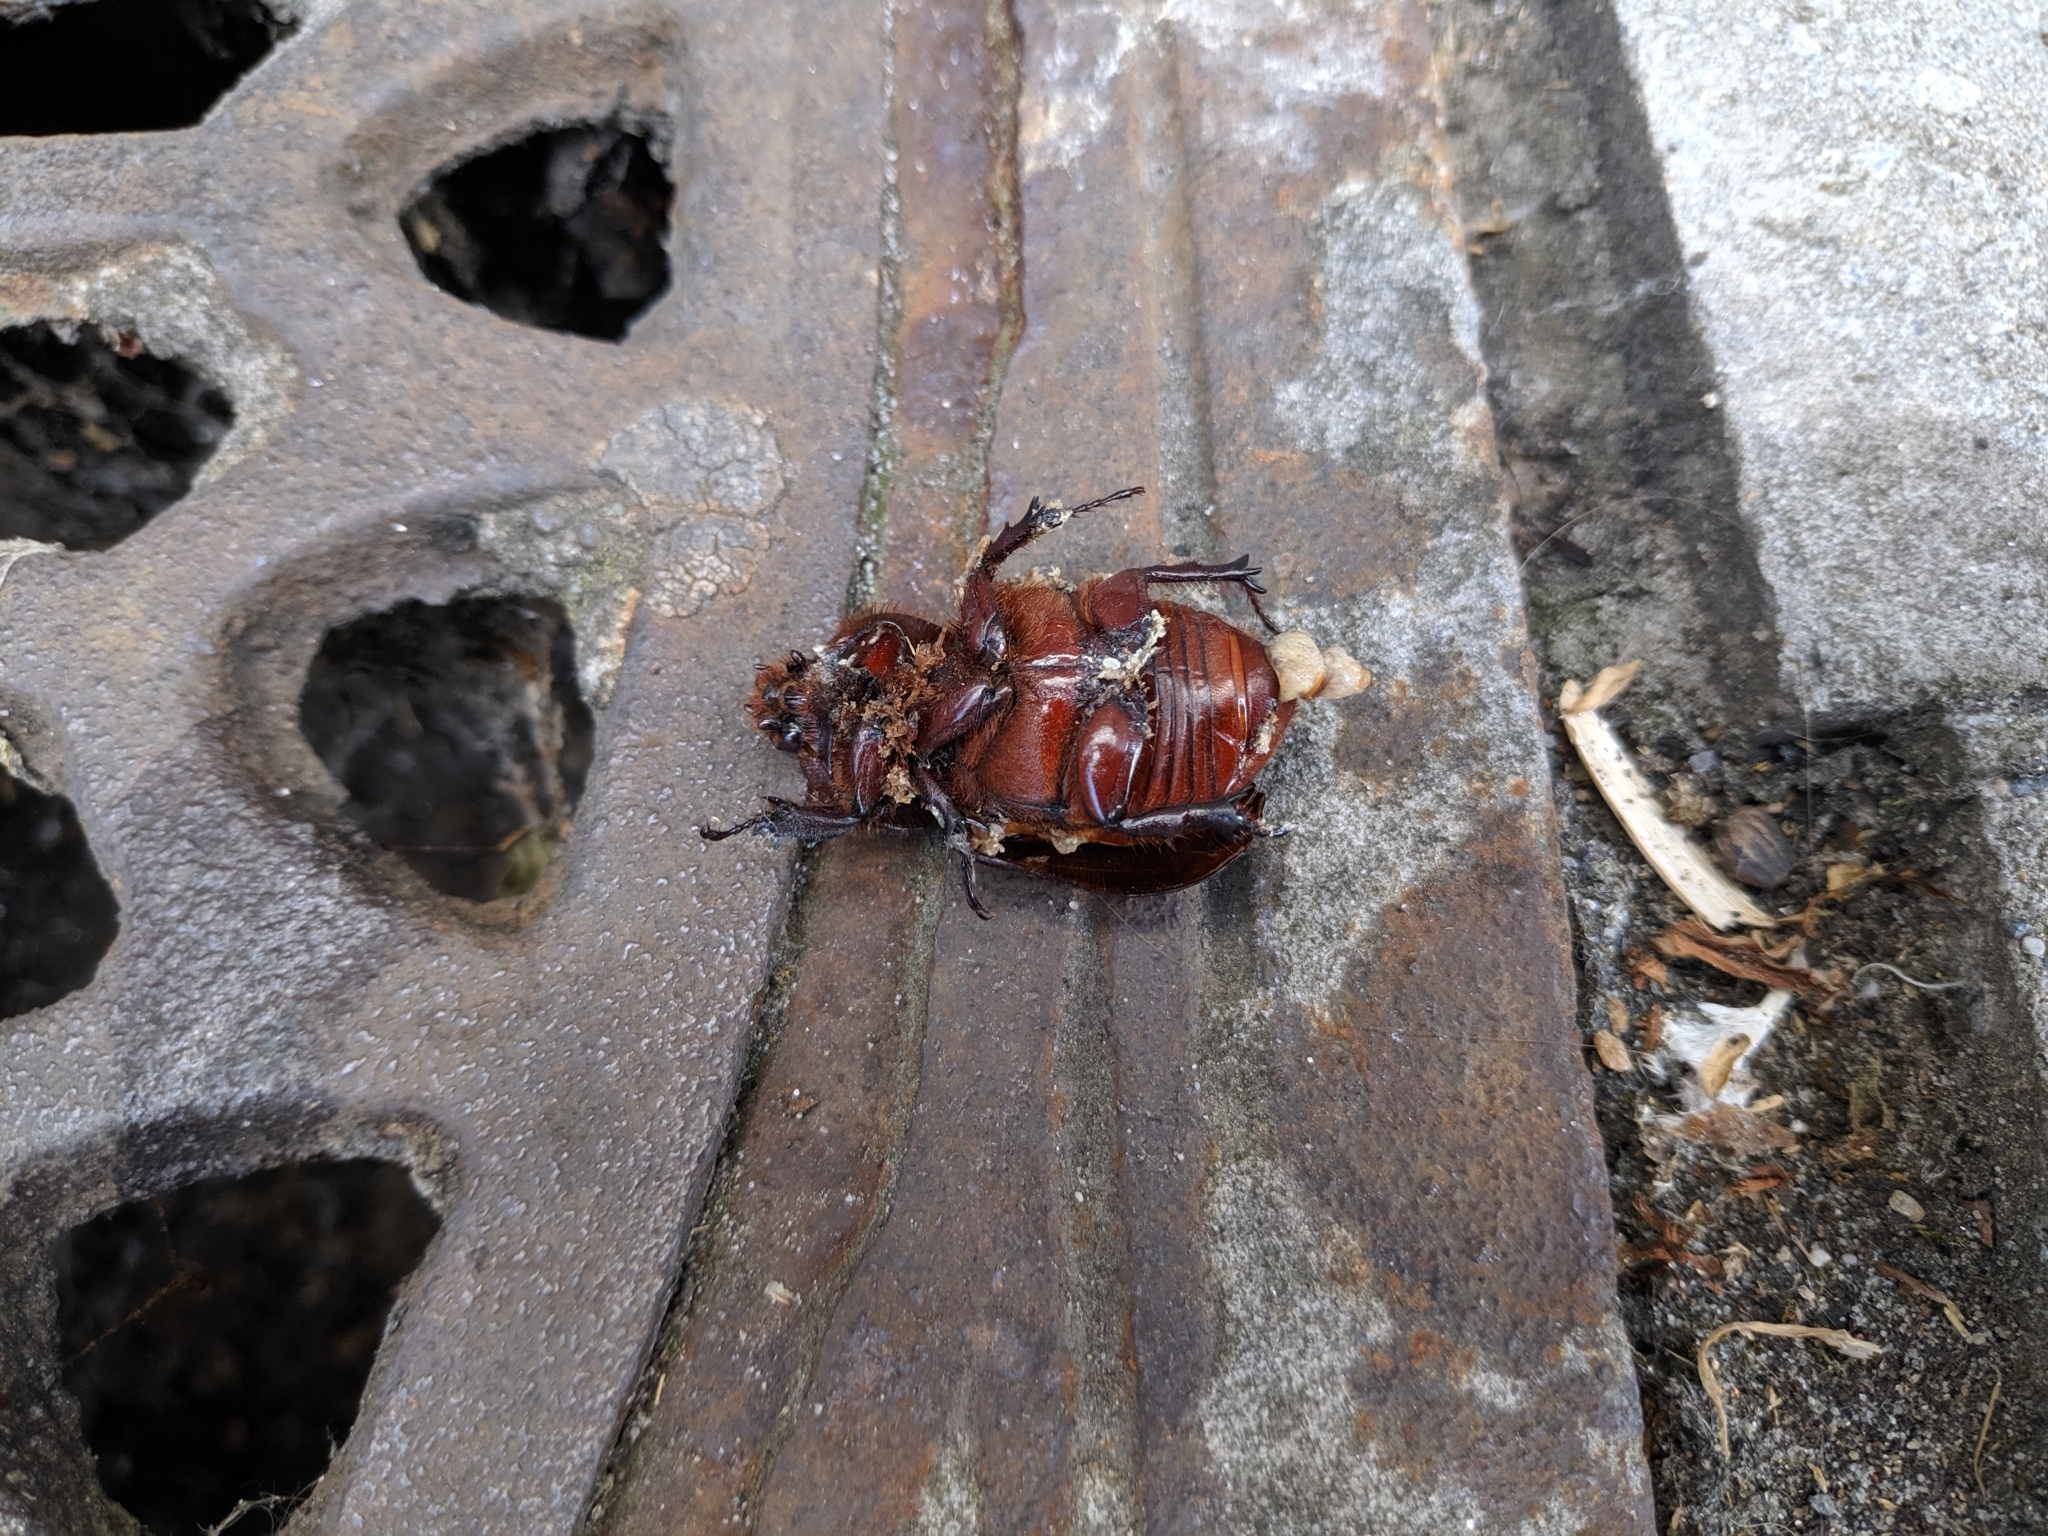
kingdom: Animalia
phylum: Arthropoda
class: Insecta
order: Coleoptera
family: Scarabaeidae
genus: Oryctes
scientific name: Oryctes nasicornis
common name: European rhinoceros beetle
